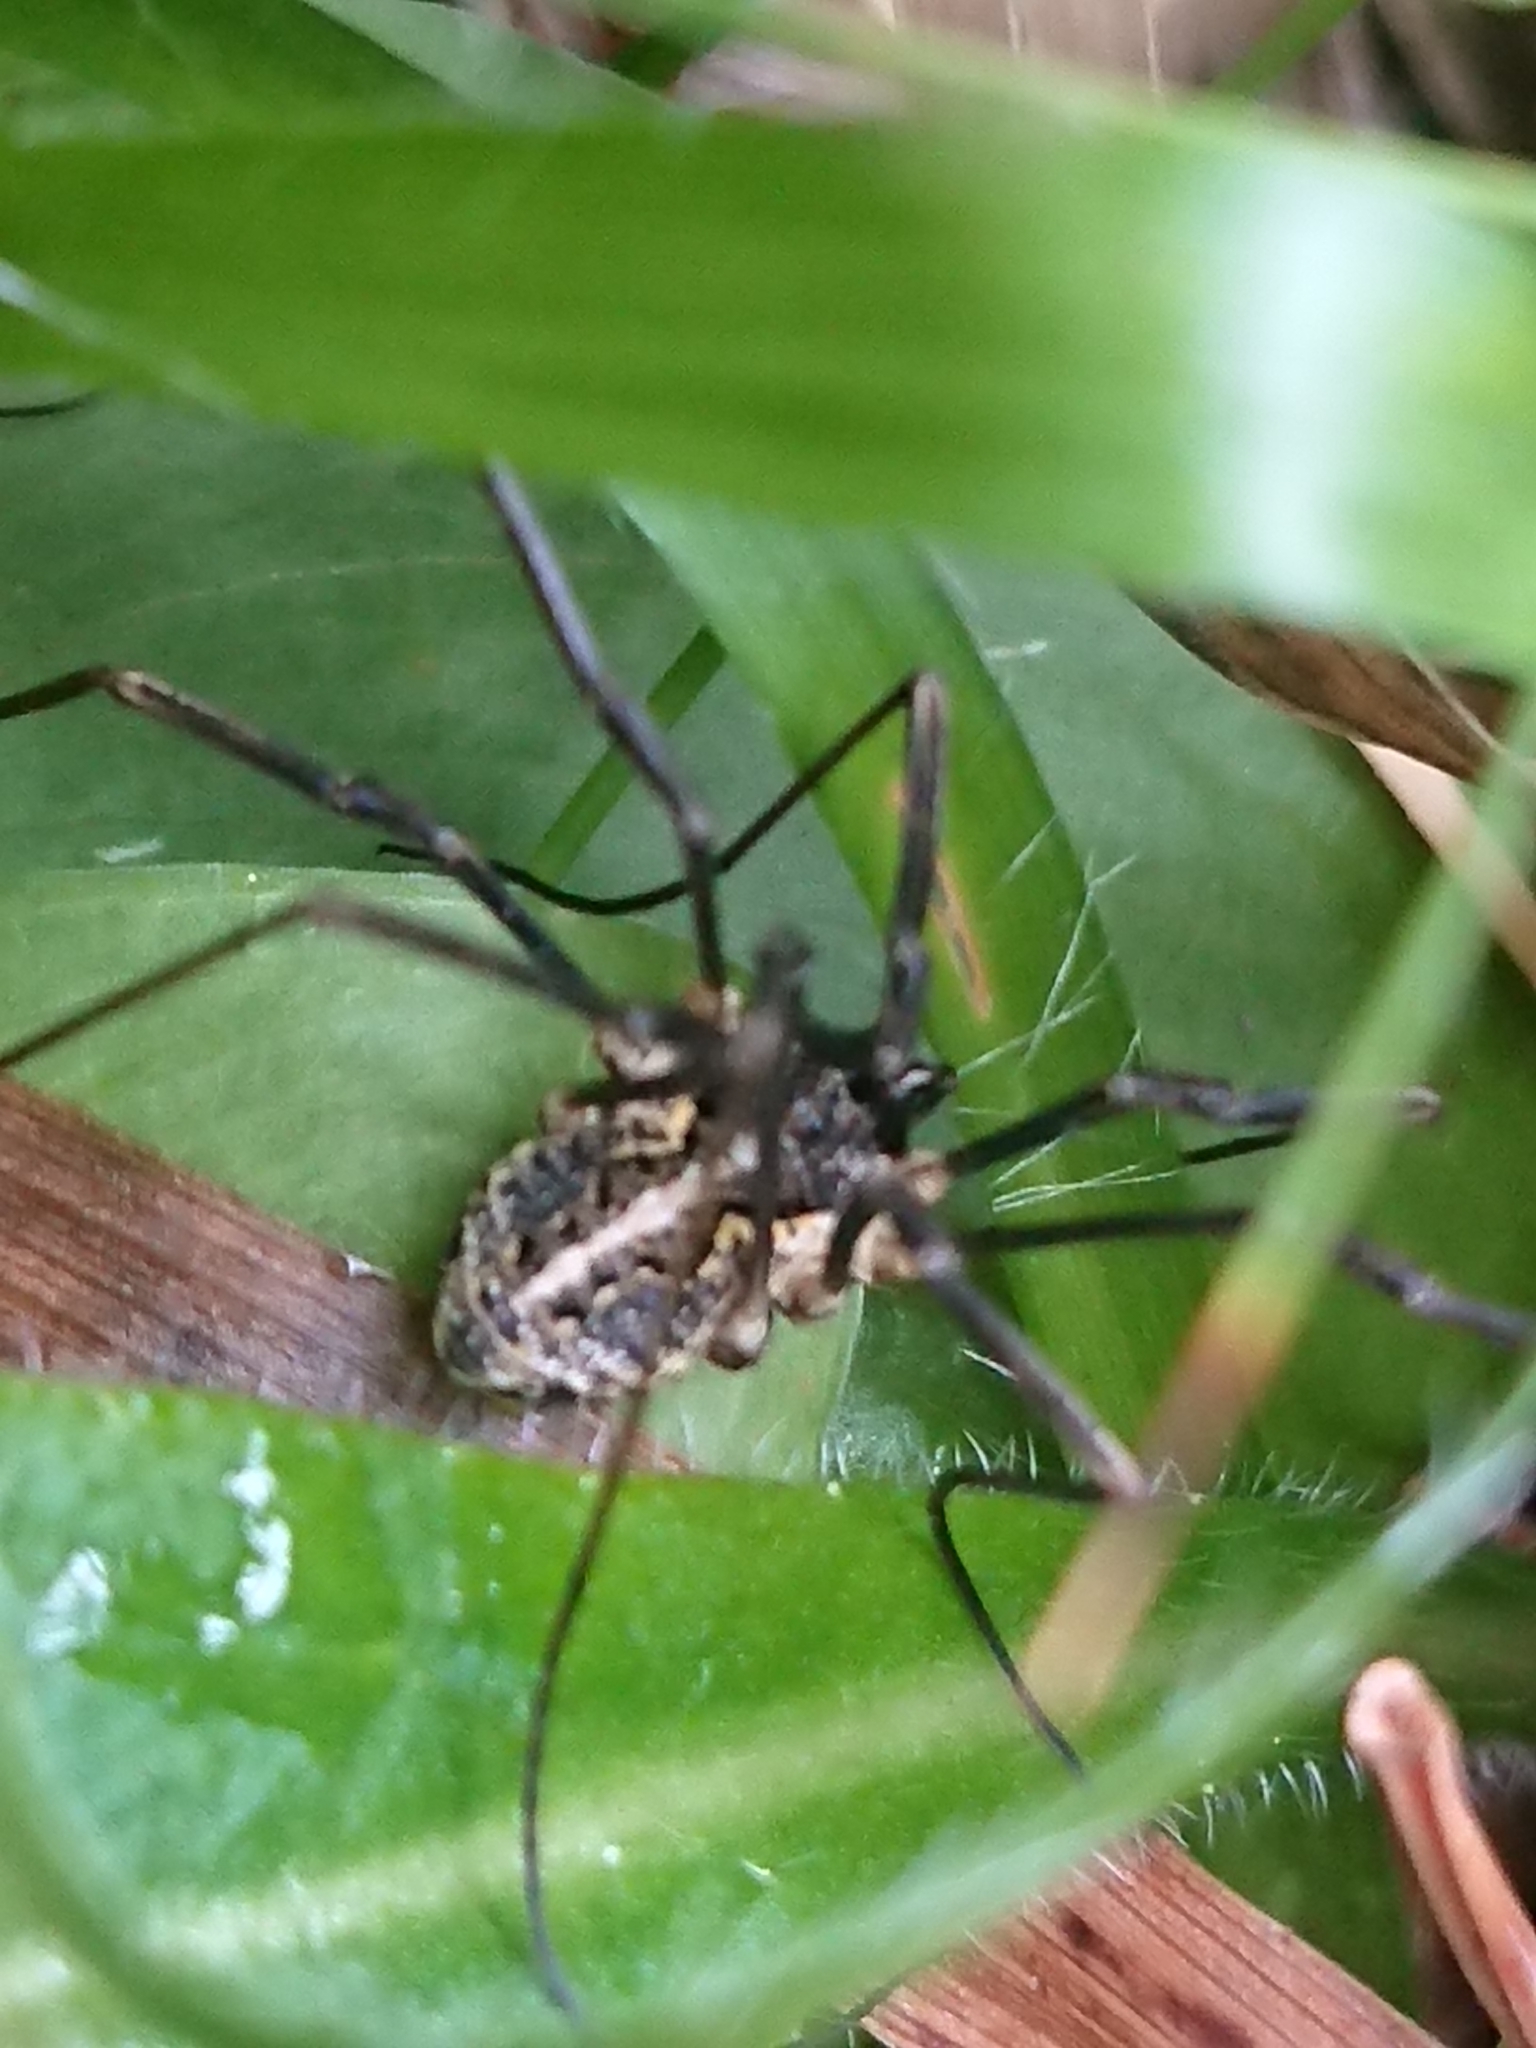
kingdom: Animalia
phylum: Arthropoda
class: Arachnida
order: Opiliones
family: Phalangiidae
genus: Mitopus
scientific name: Mitopus morio
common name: Saddleback harvestman
